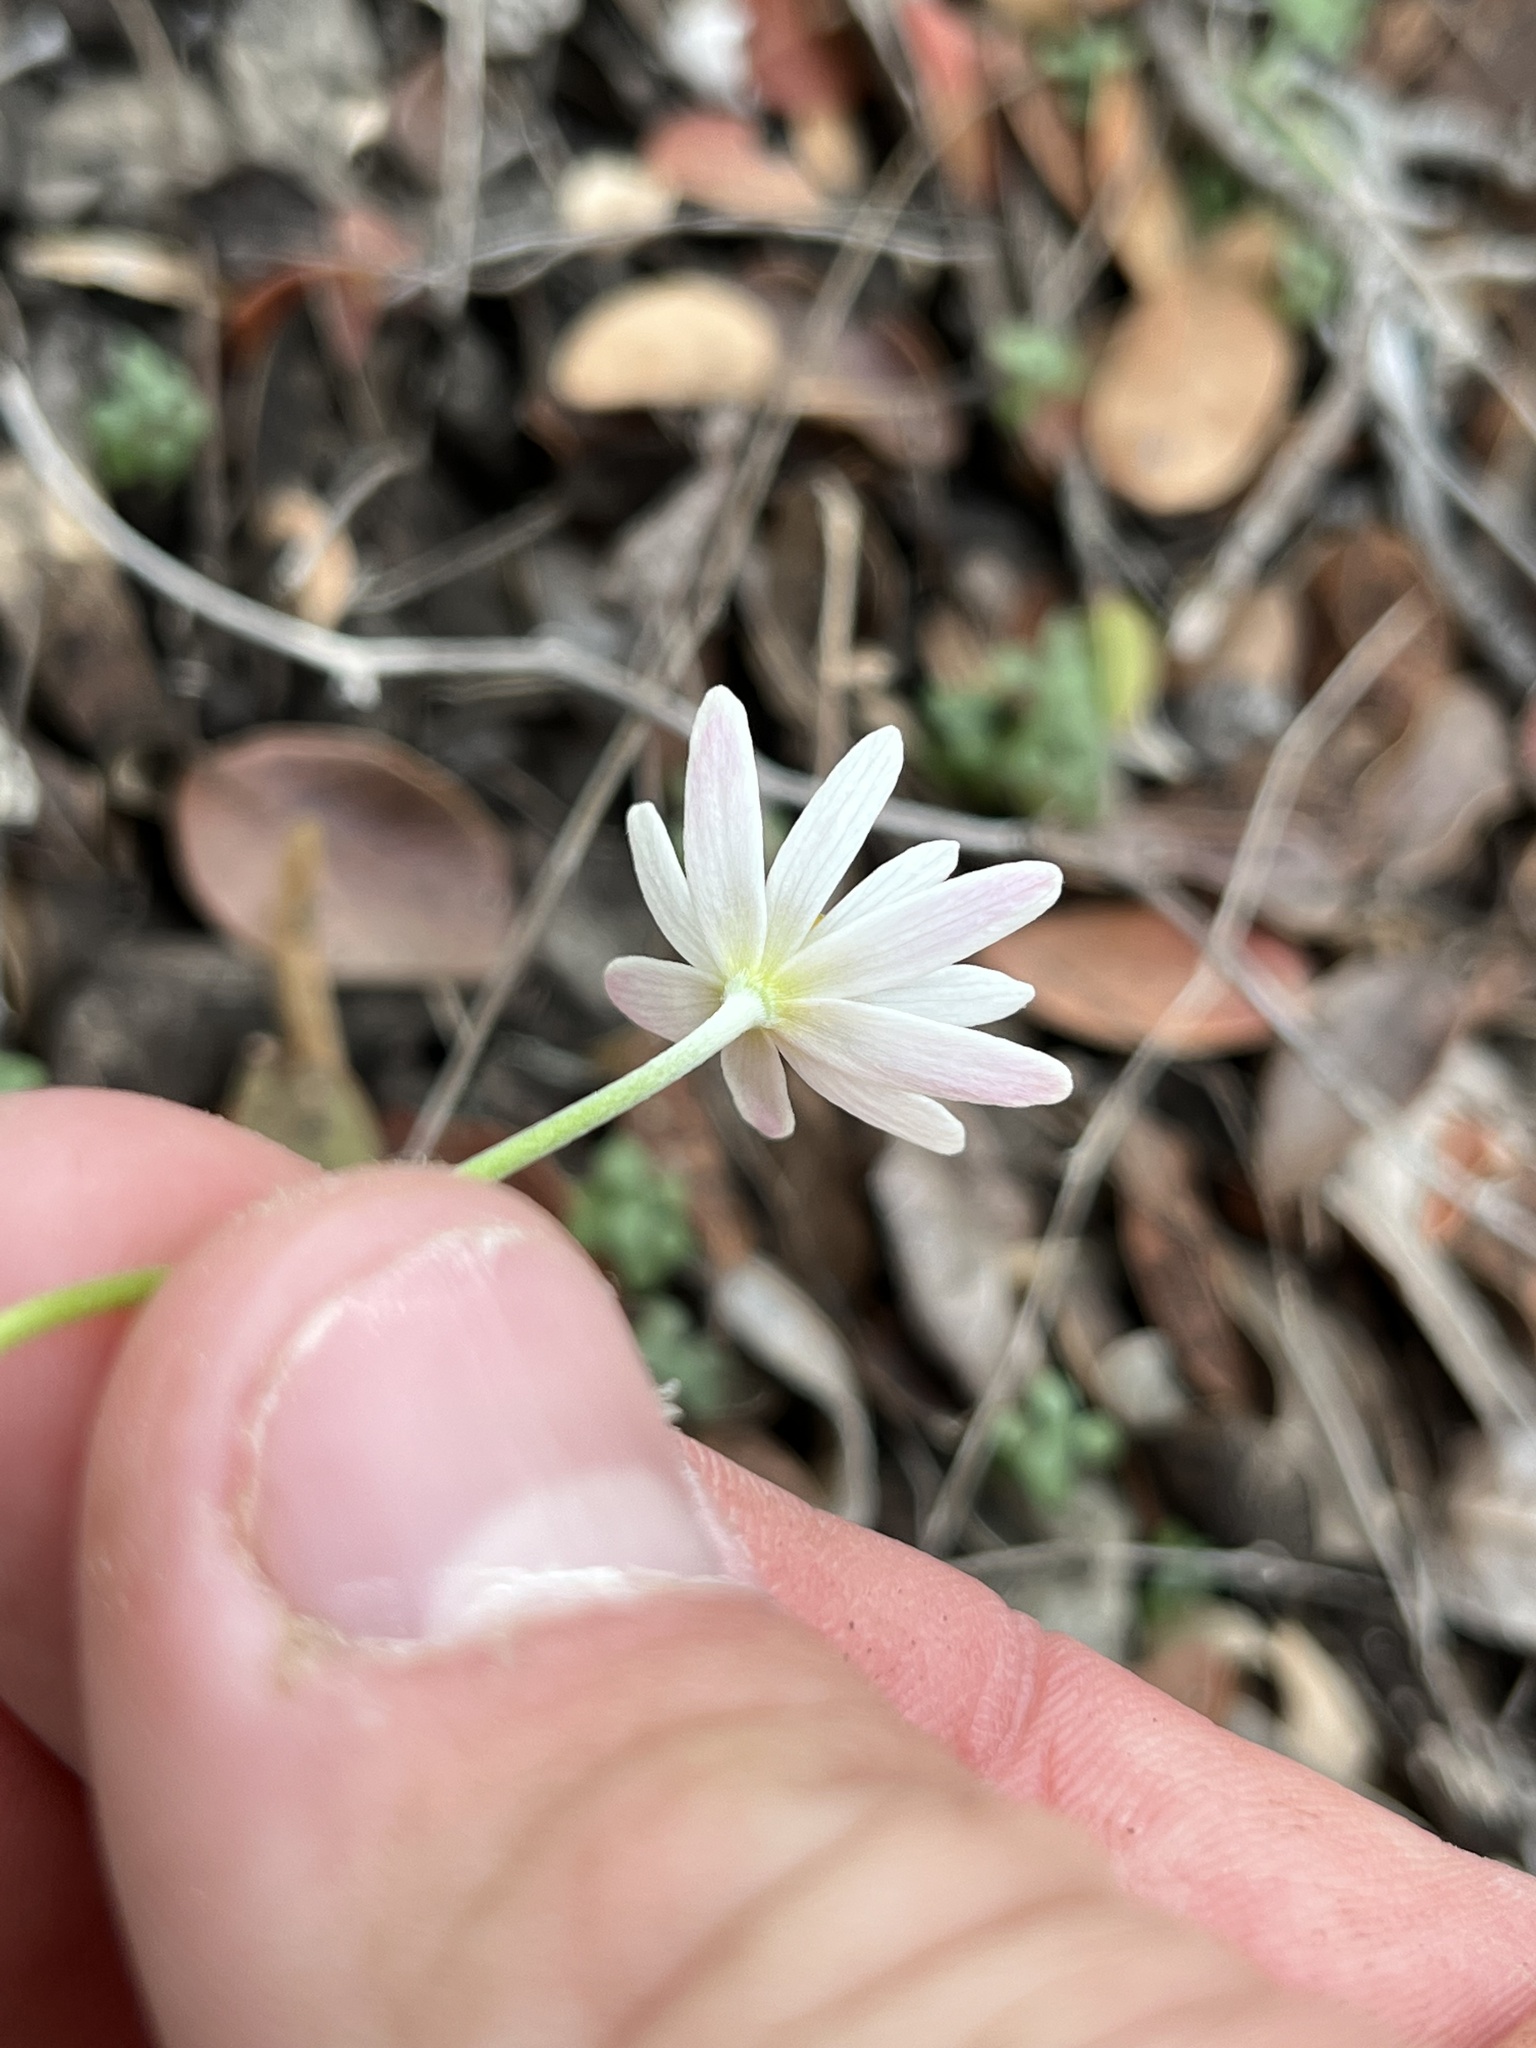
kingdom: Plantae
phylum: Tracheophyta
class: Magnoliopsida
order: Ranunculales
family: Ranunculaceae
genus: Anemone
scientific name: Anemone edwardsiana
